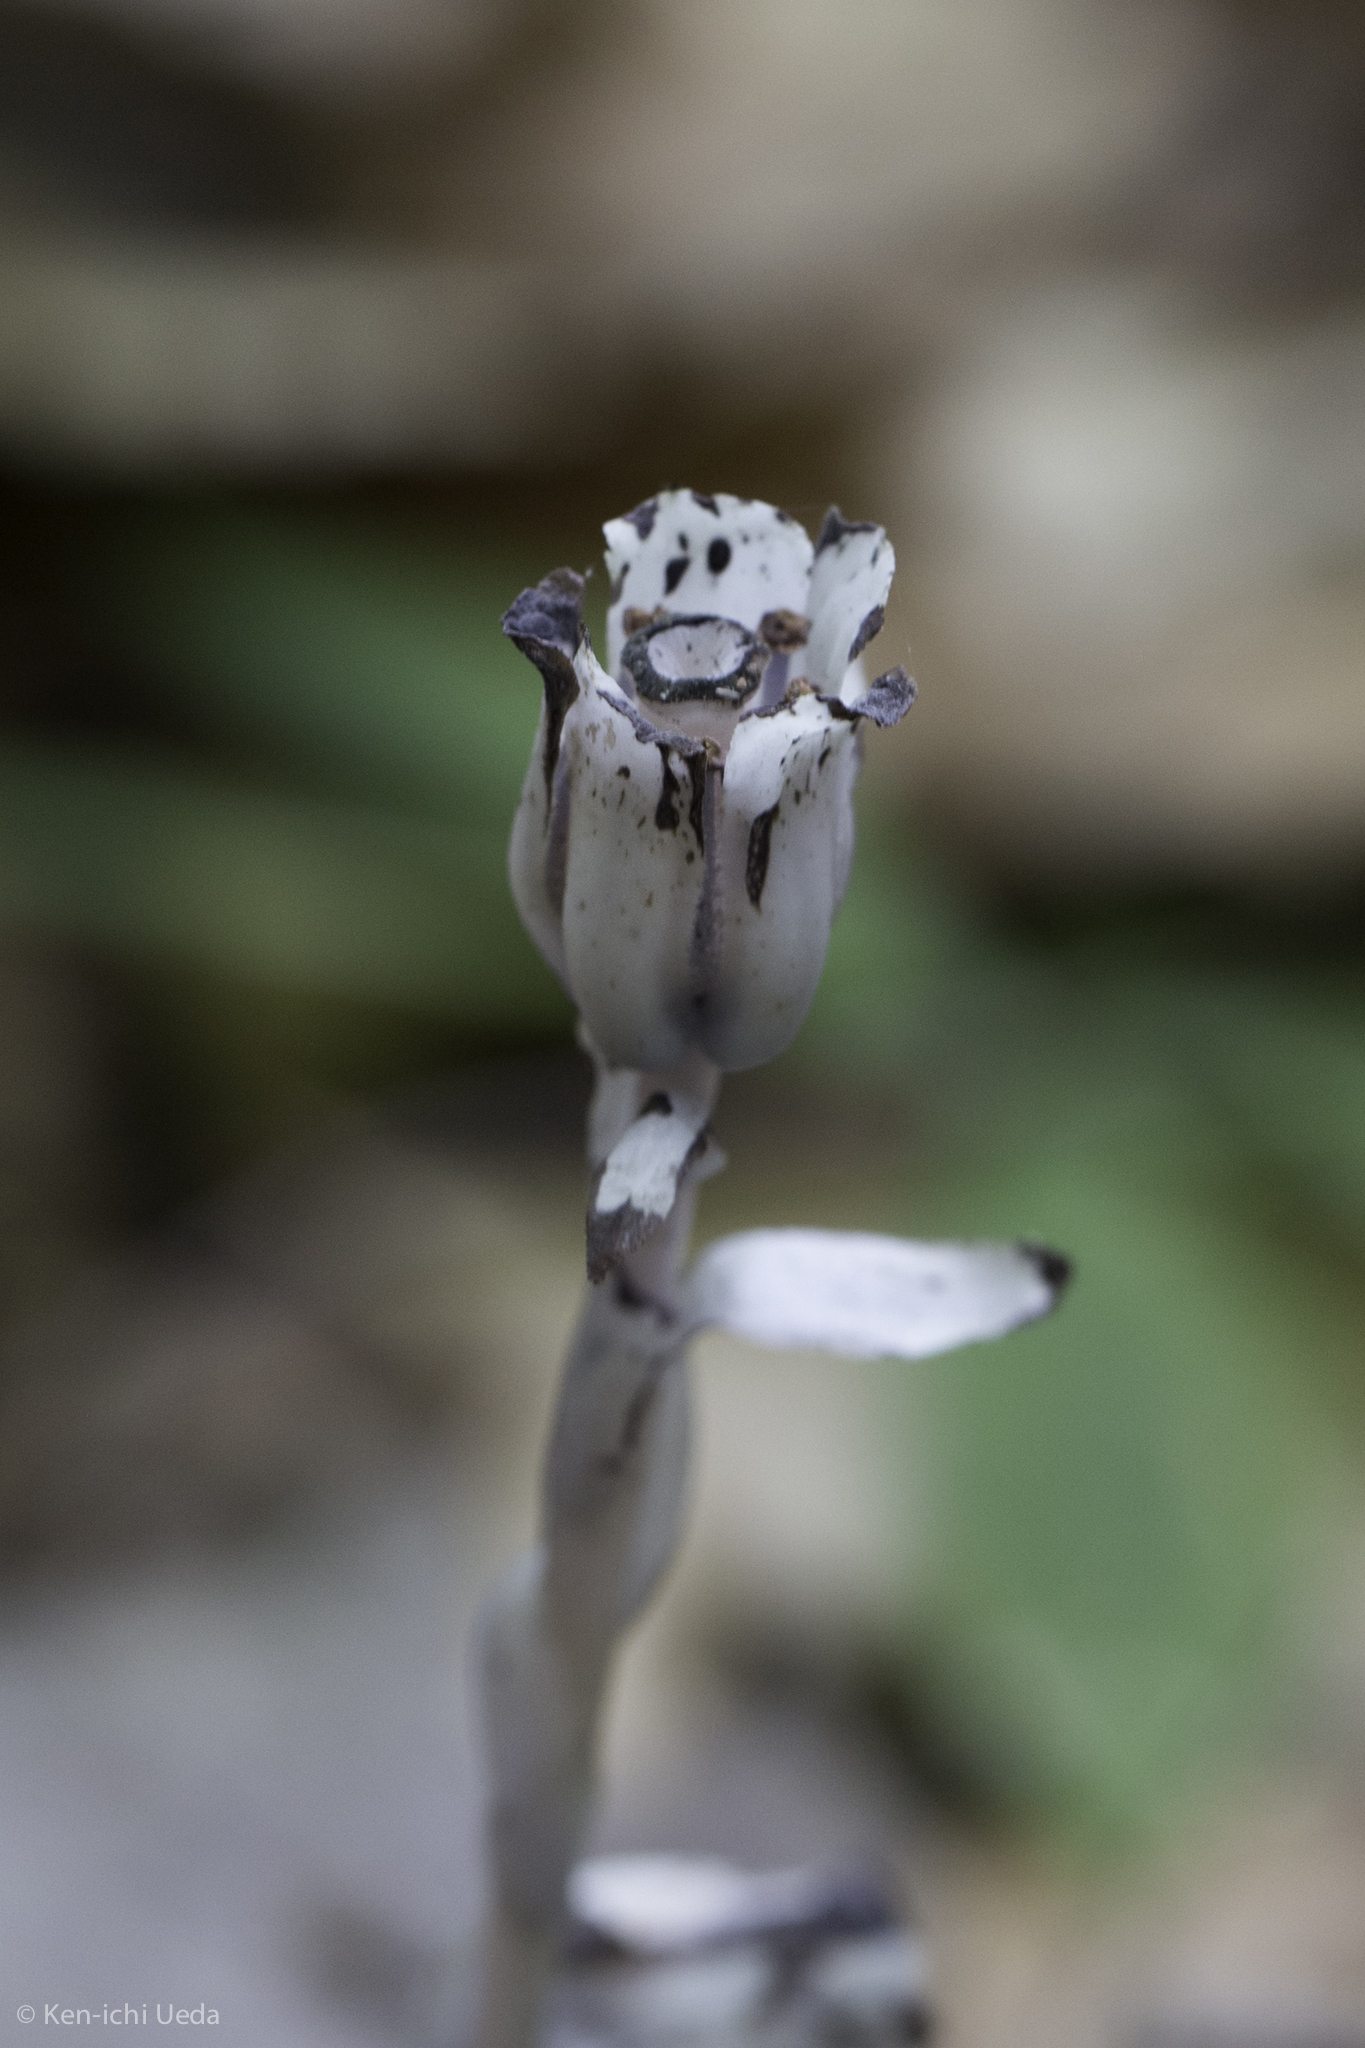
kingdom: Plantae
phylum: Tracheophyta
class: Magnoliopsida
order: Ericales
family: Ericaceae
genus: Monotropa
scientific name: Monotropa uniflora
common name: Convulsion root
